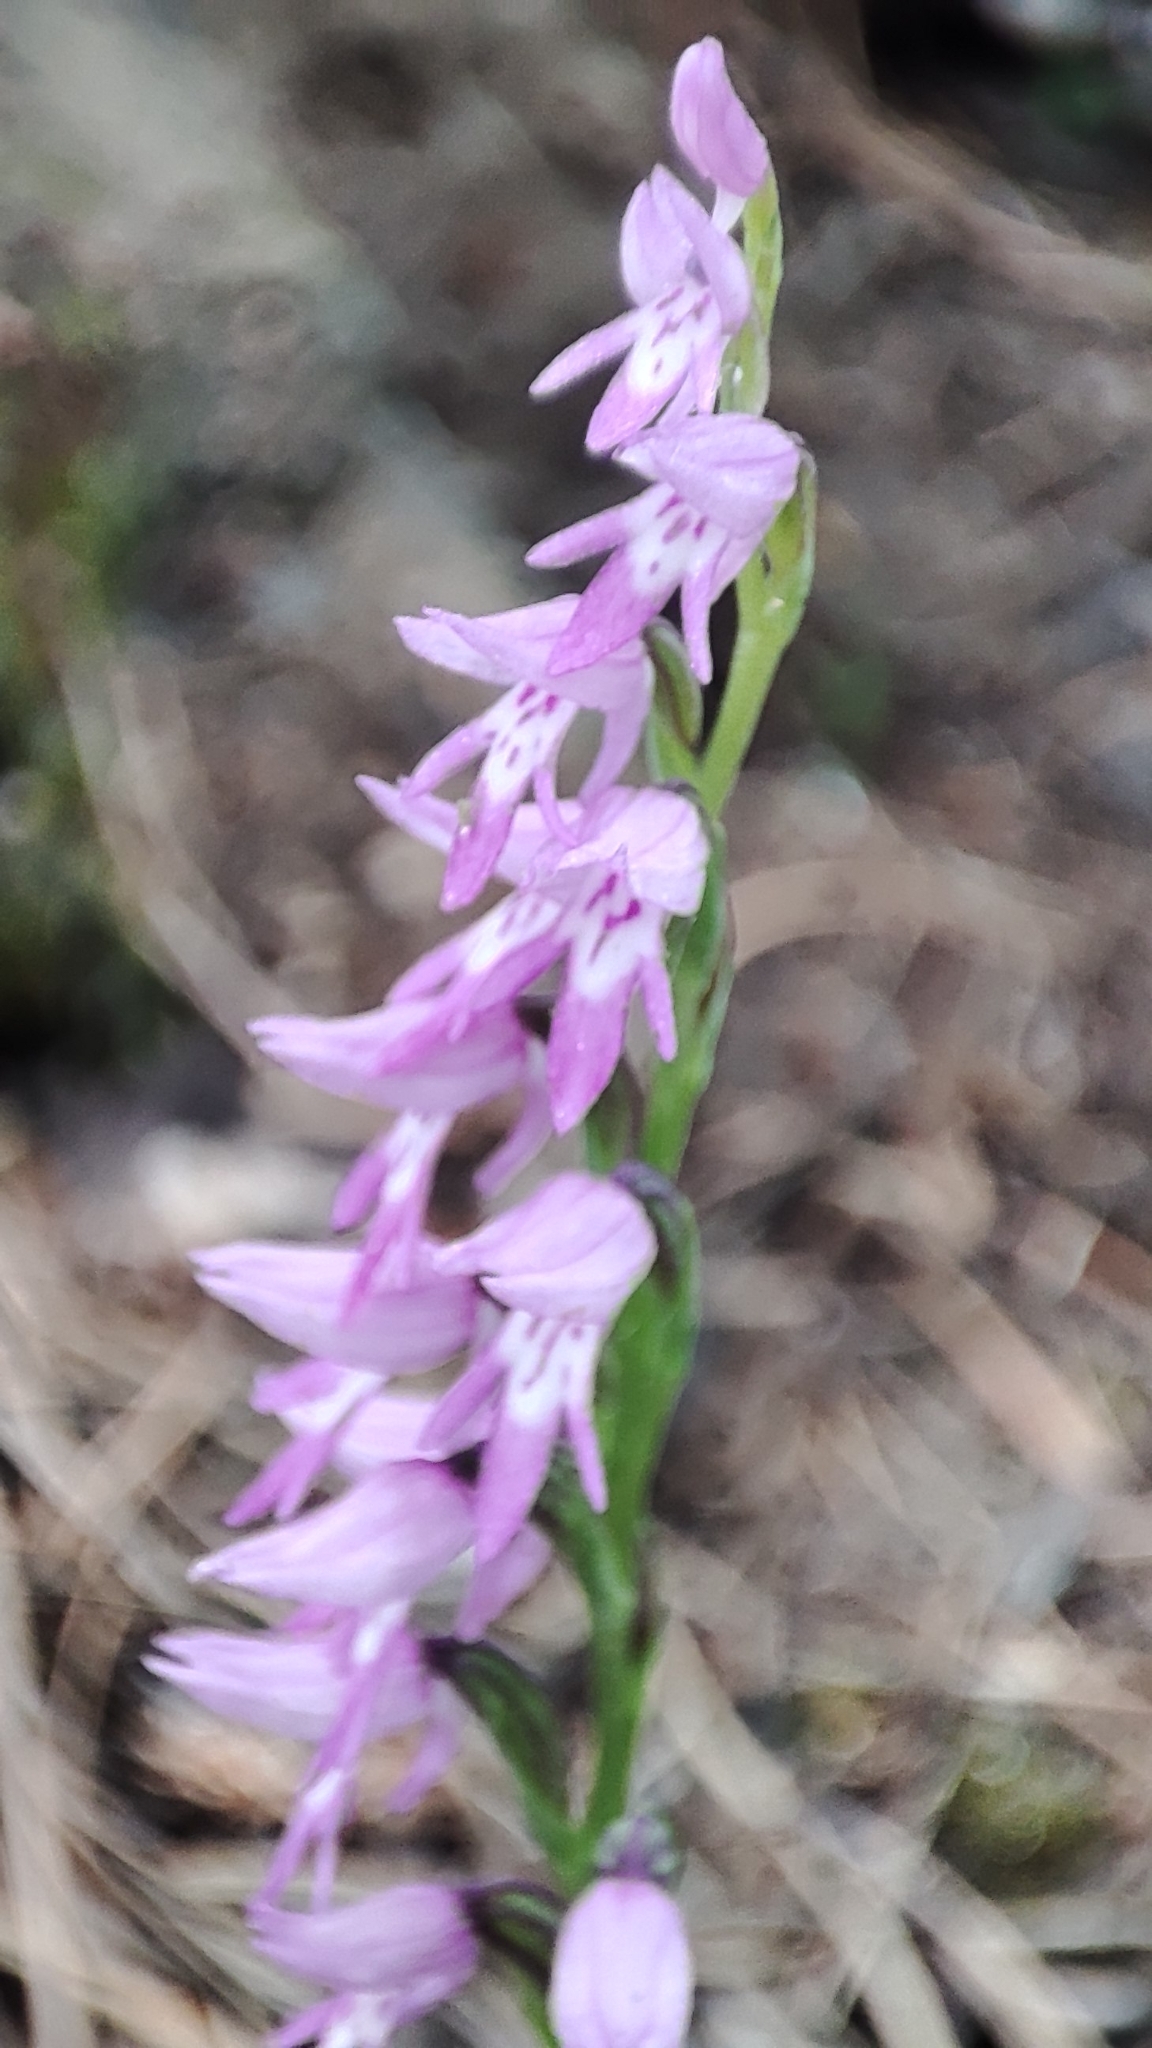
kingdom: Plantae
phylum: Tracheophyta
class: Liliopsida
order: Asparagales
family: Orchidaceae
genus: Hemipilia
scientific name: Hemipilia cucullata
